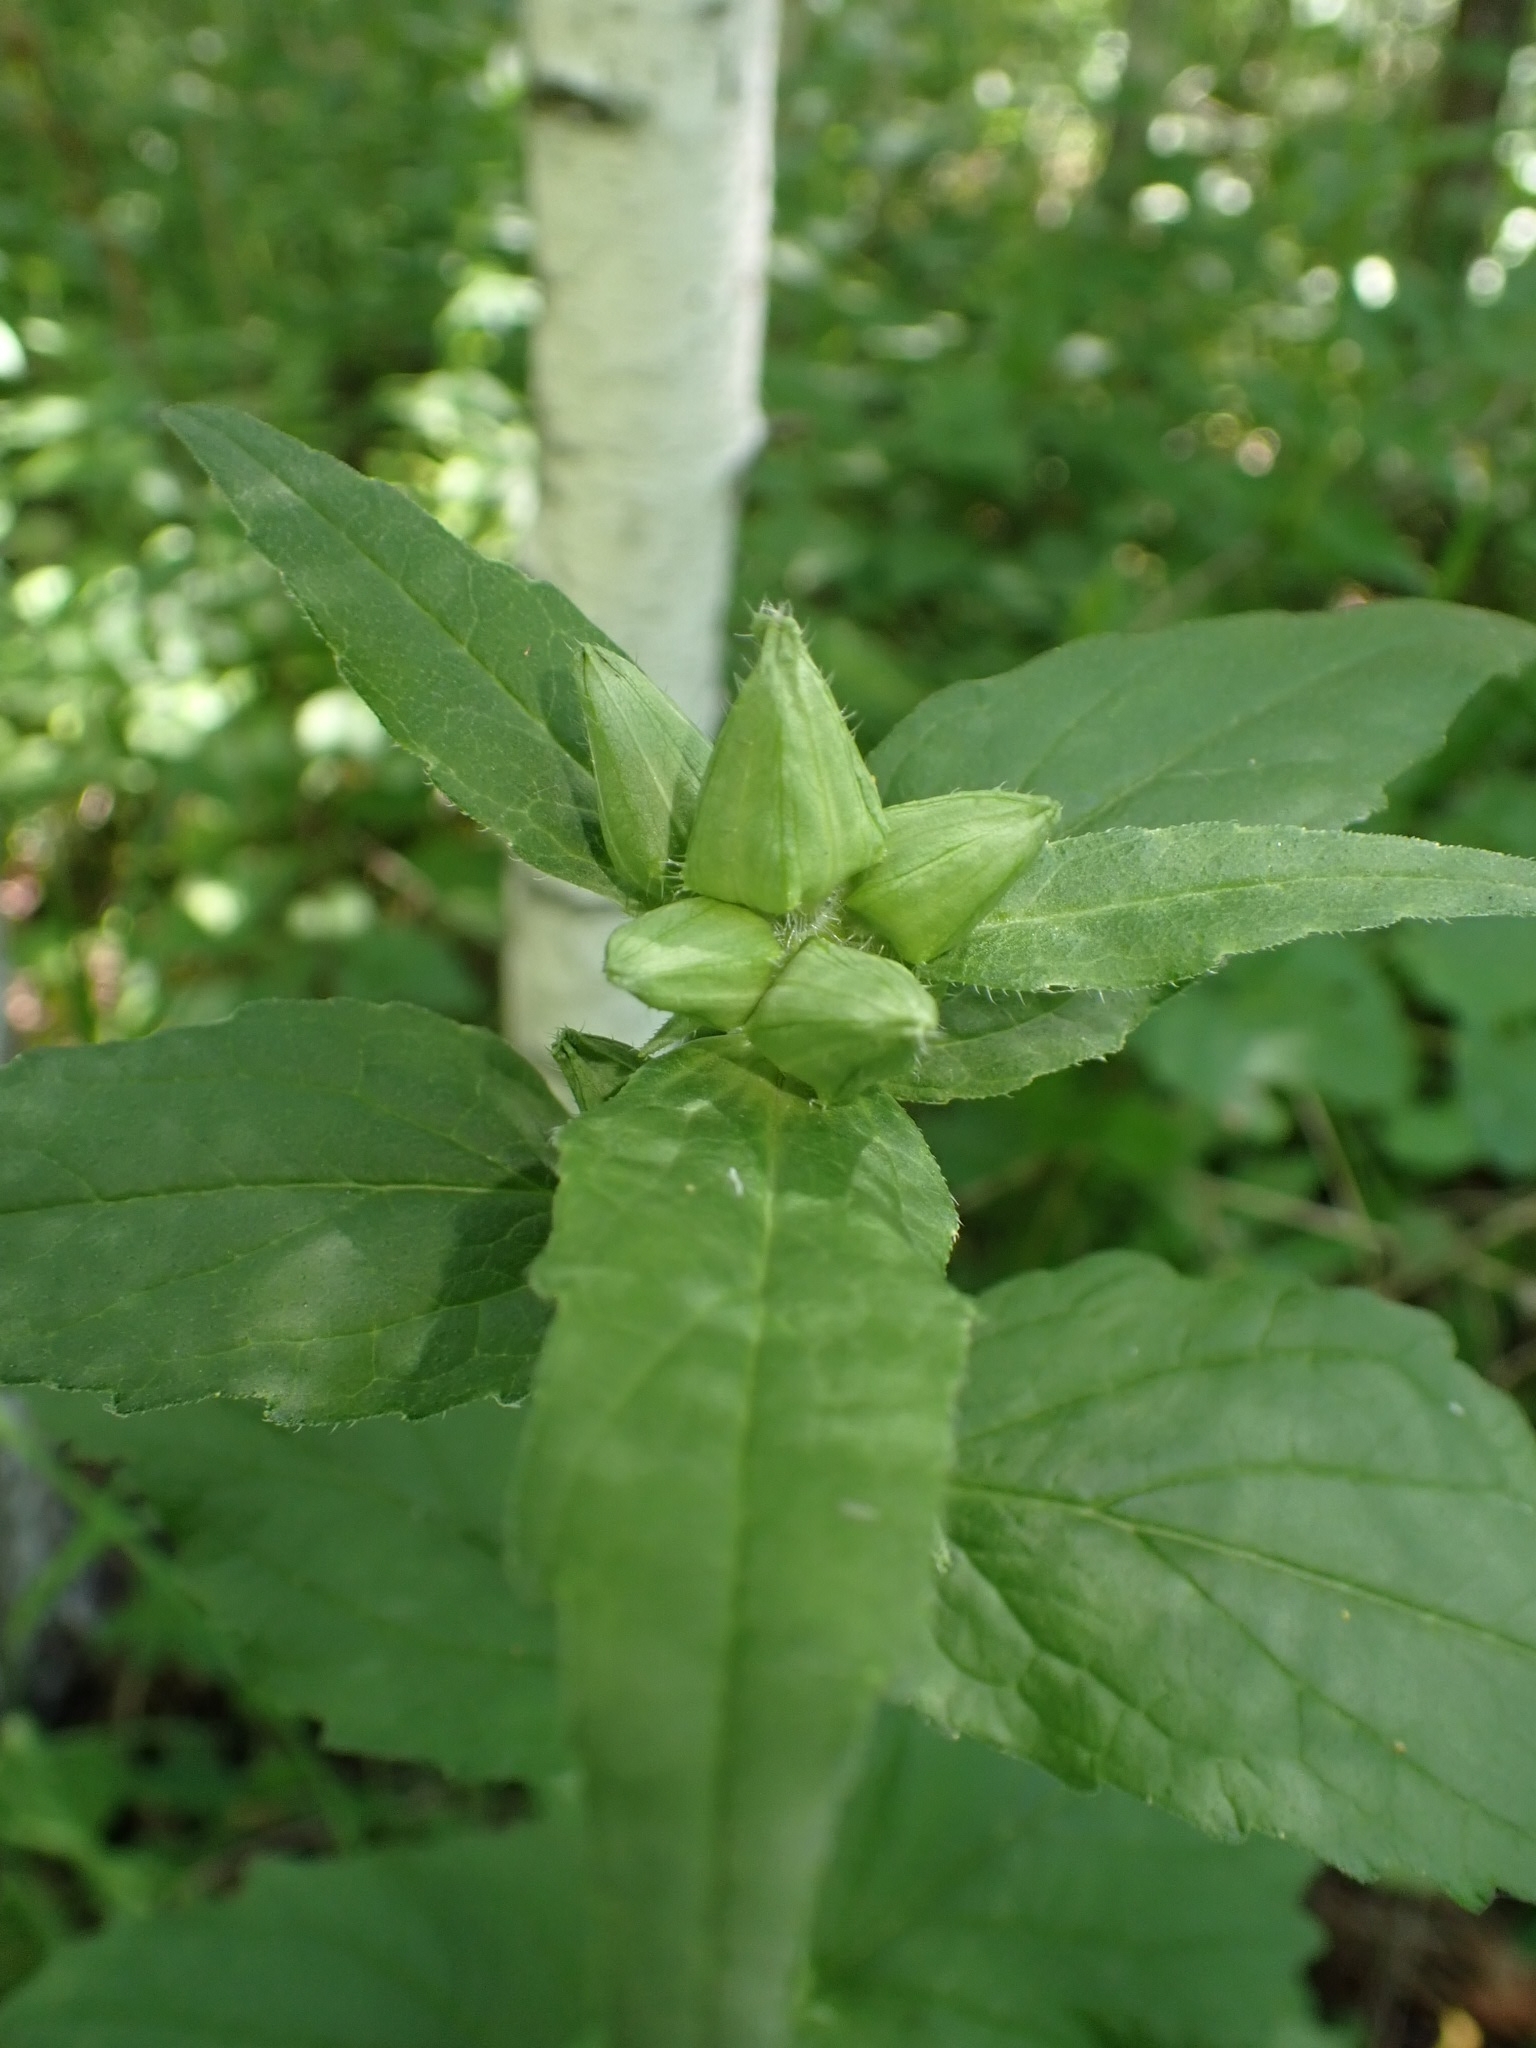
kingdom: Plantae
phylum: Tracheophyta
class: Magnoliopsida
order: Asterales
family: Campanulaceae
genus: Campanula
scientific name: Campanula trachelium
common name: Nettle-leaved bellflower
